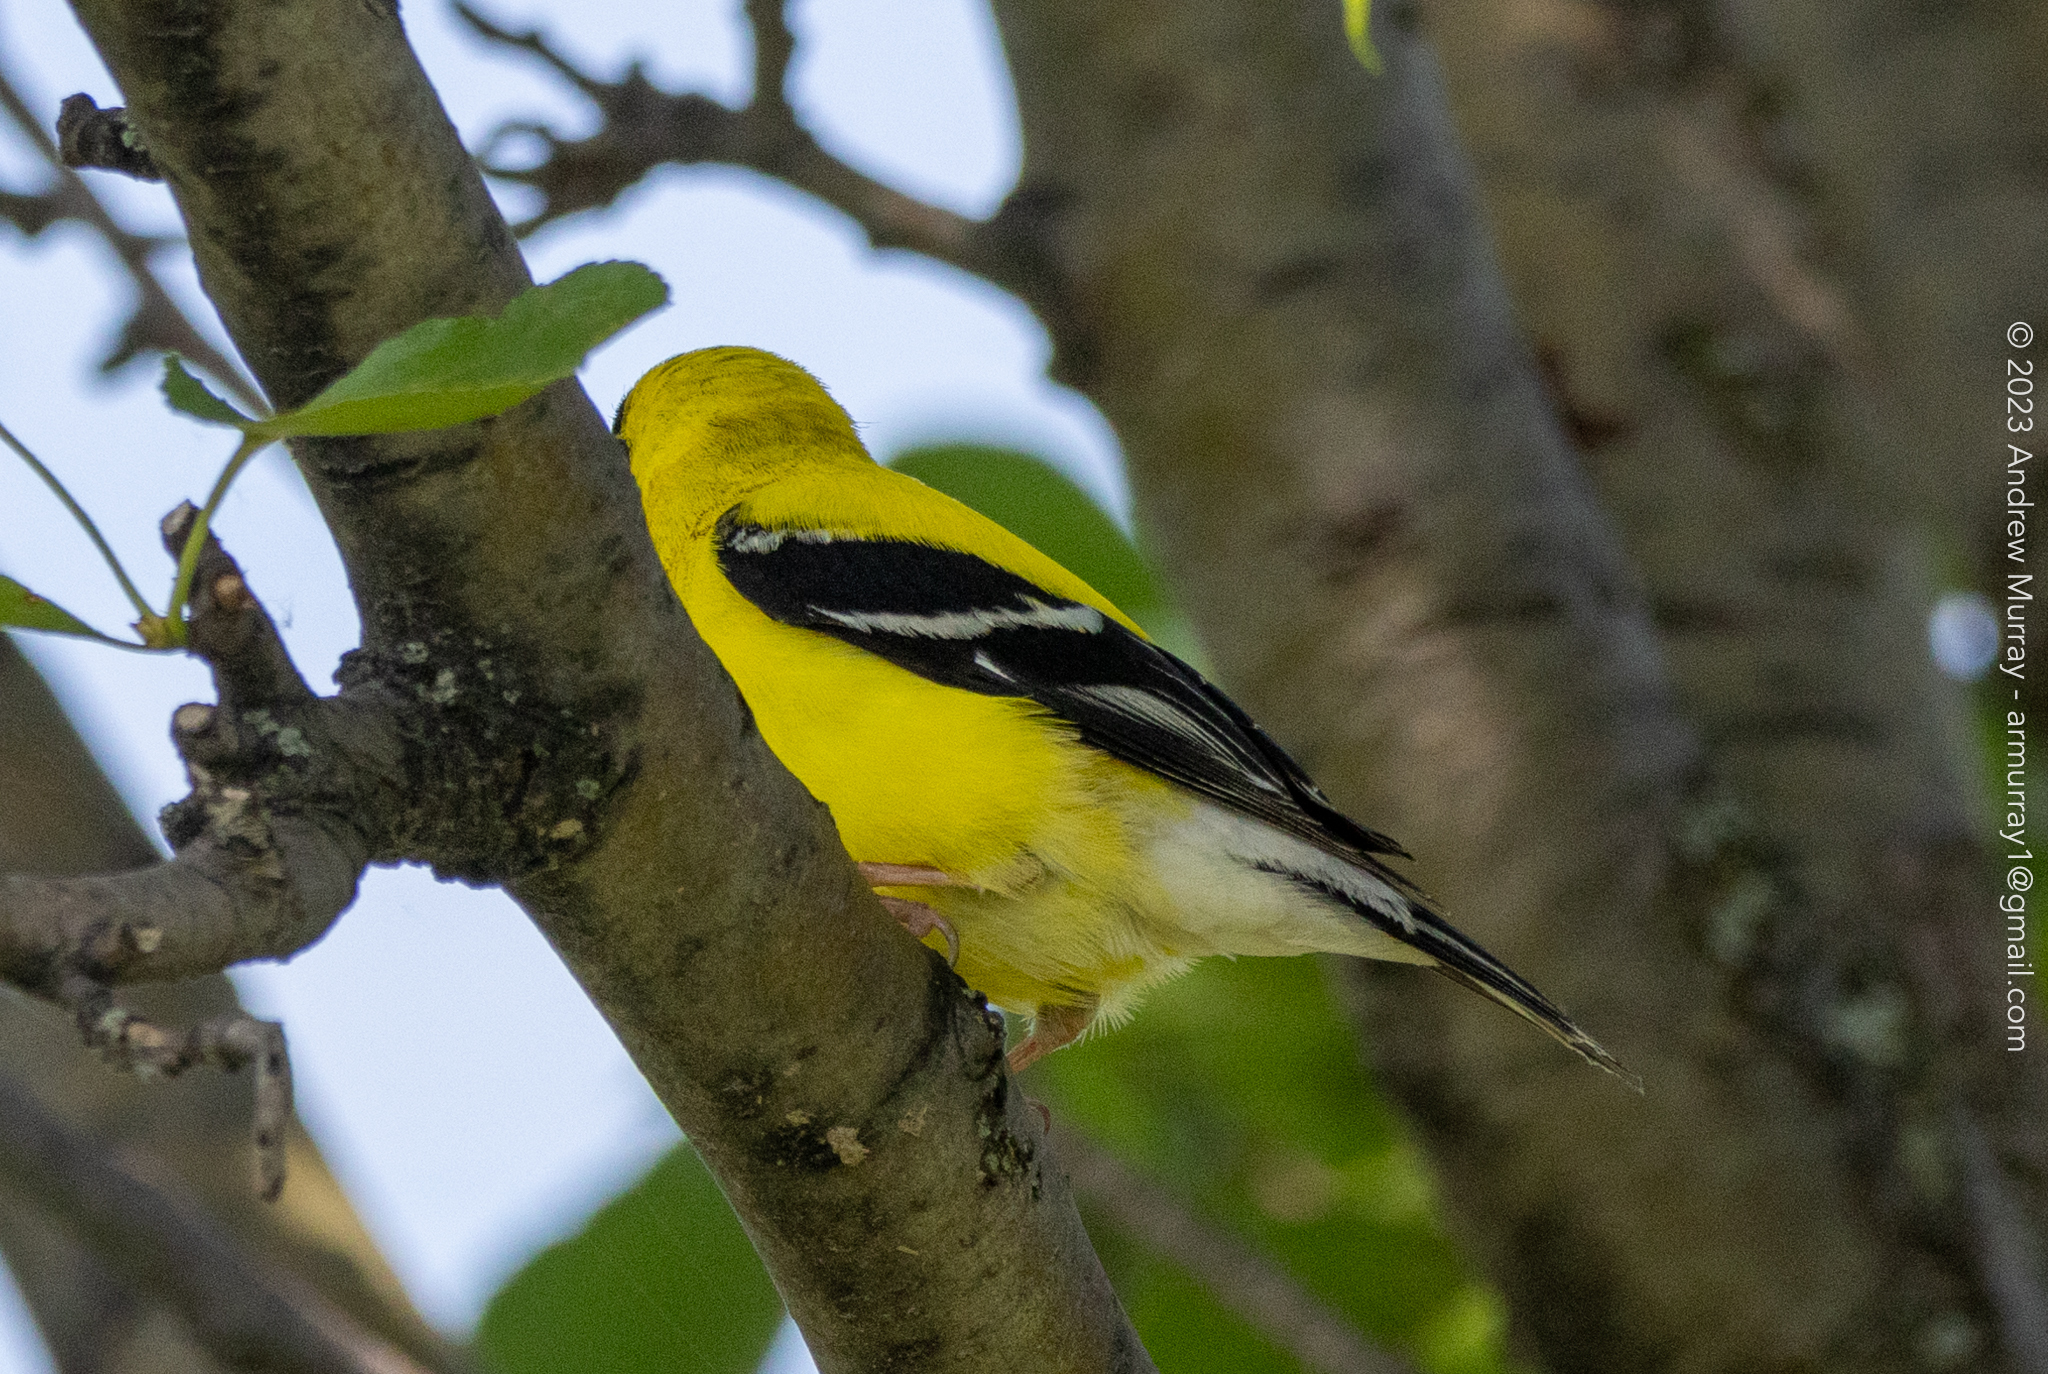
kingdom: Animalia
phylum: Chordata
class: Aves
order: Passeriformes
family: Fringillidae
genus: Spinus
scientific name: Spinus tristis
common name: American goldfinch
